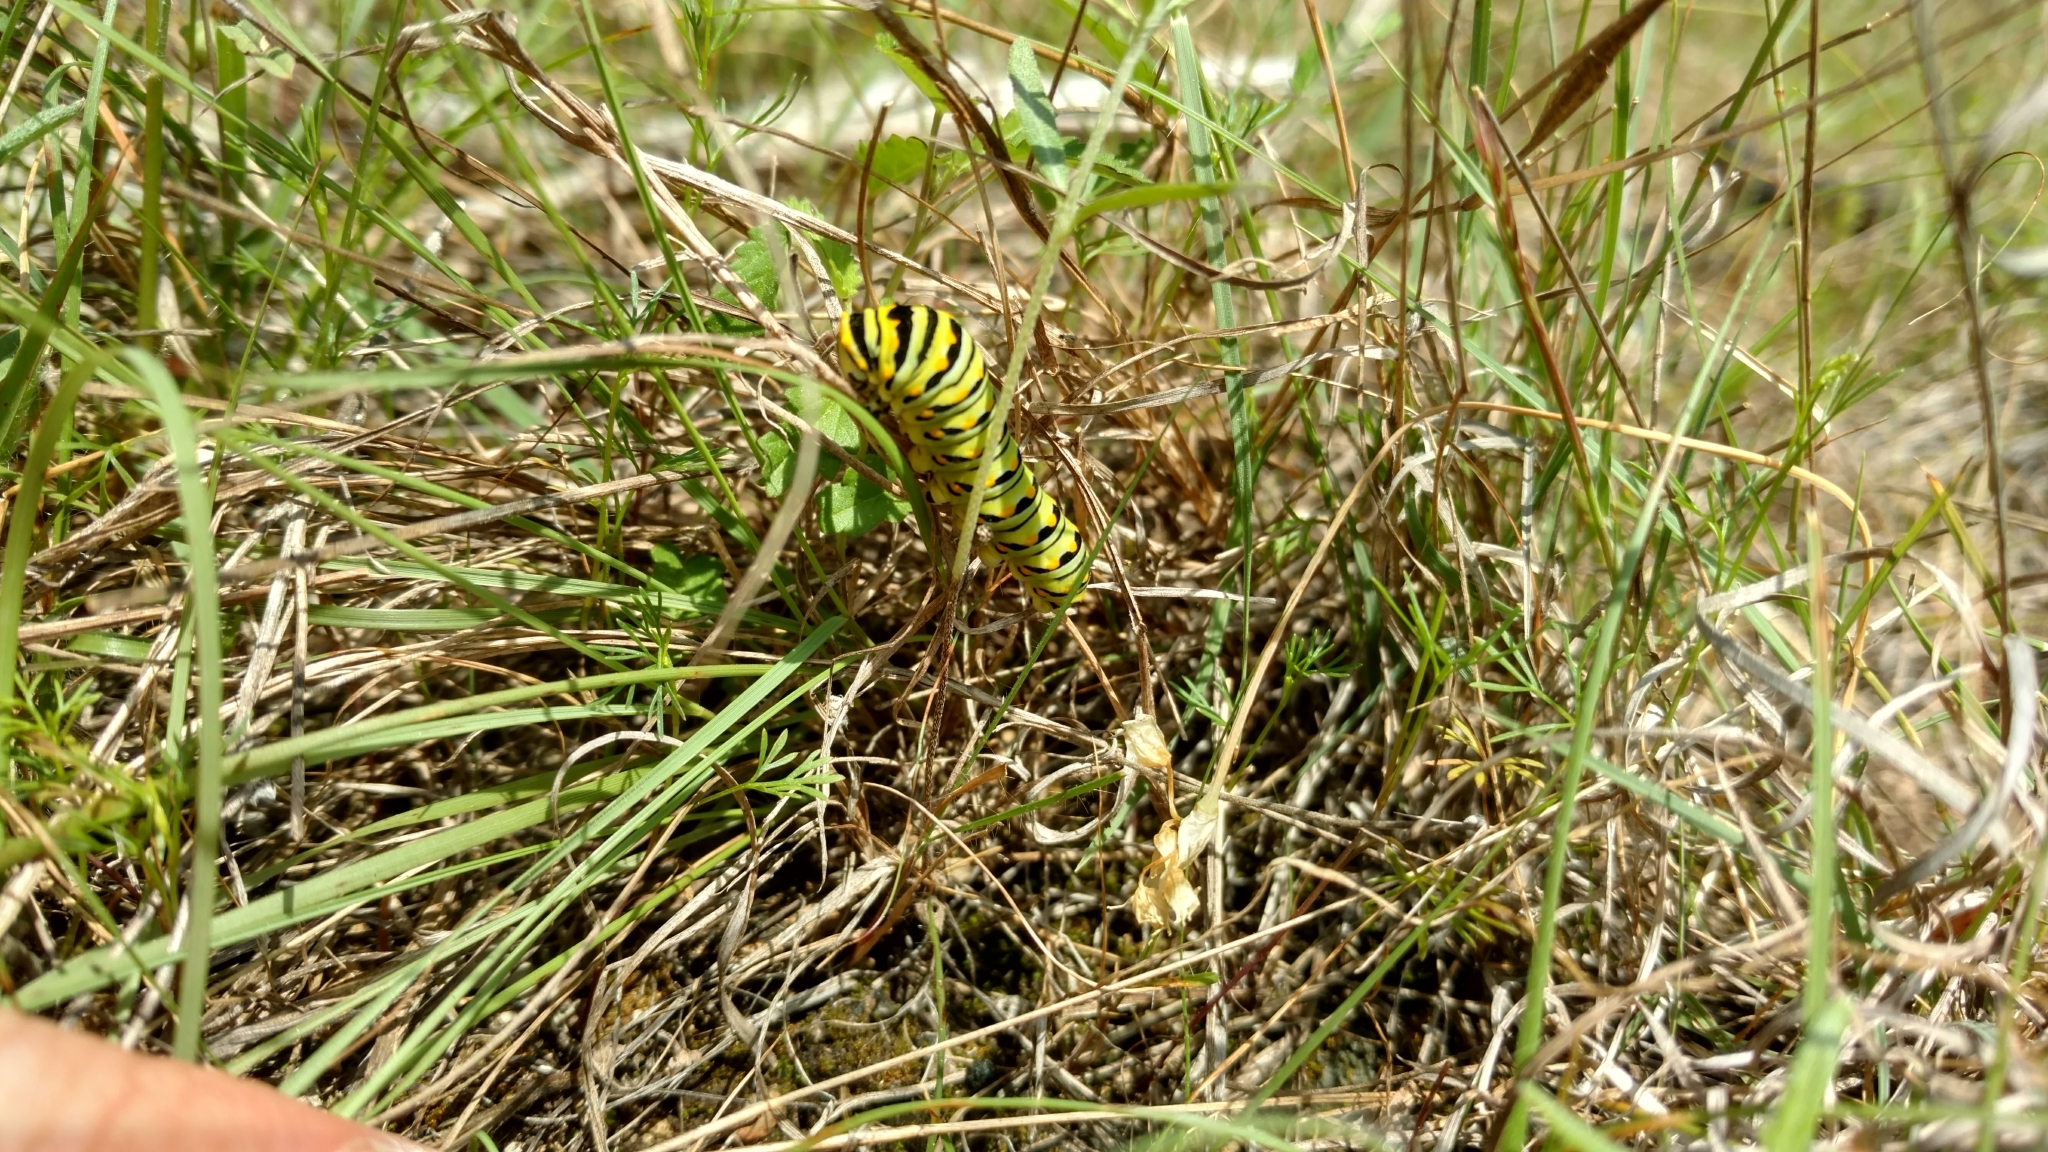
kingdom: Animalia
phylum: Arthropoda
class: Insecta
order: Lepidoptera
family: Papilionidae
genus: Papilio
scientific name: Papilio polyxenes
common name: Black swallowtail
